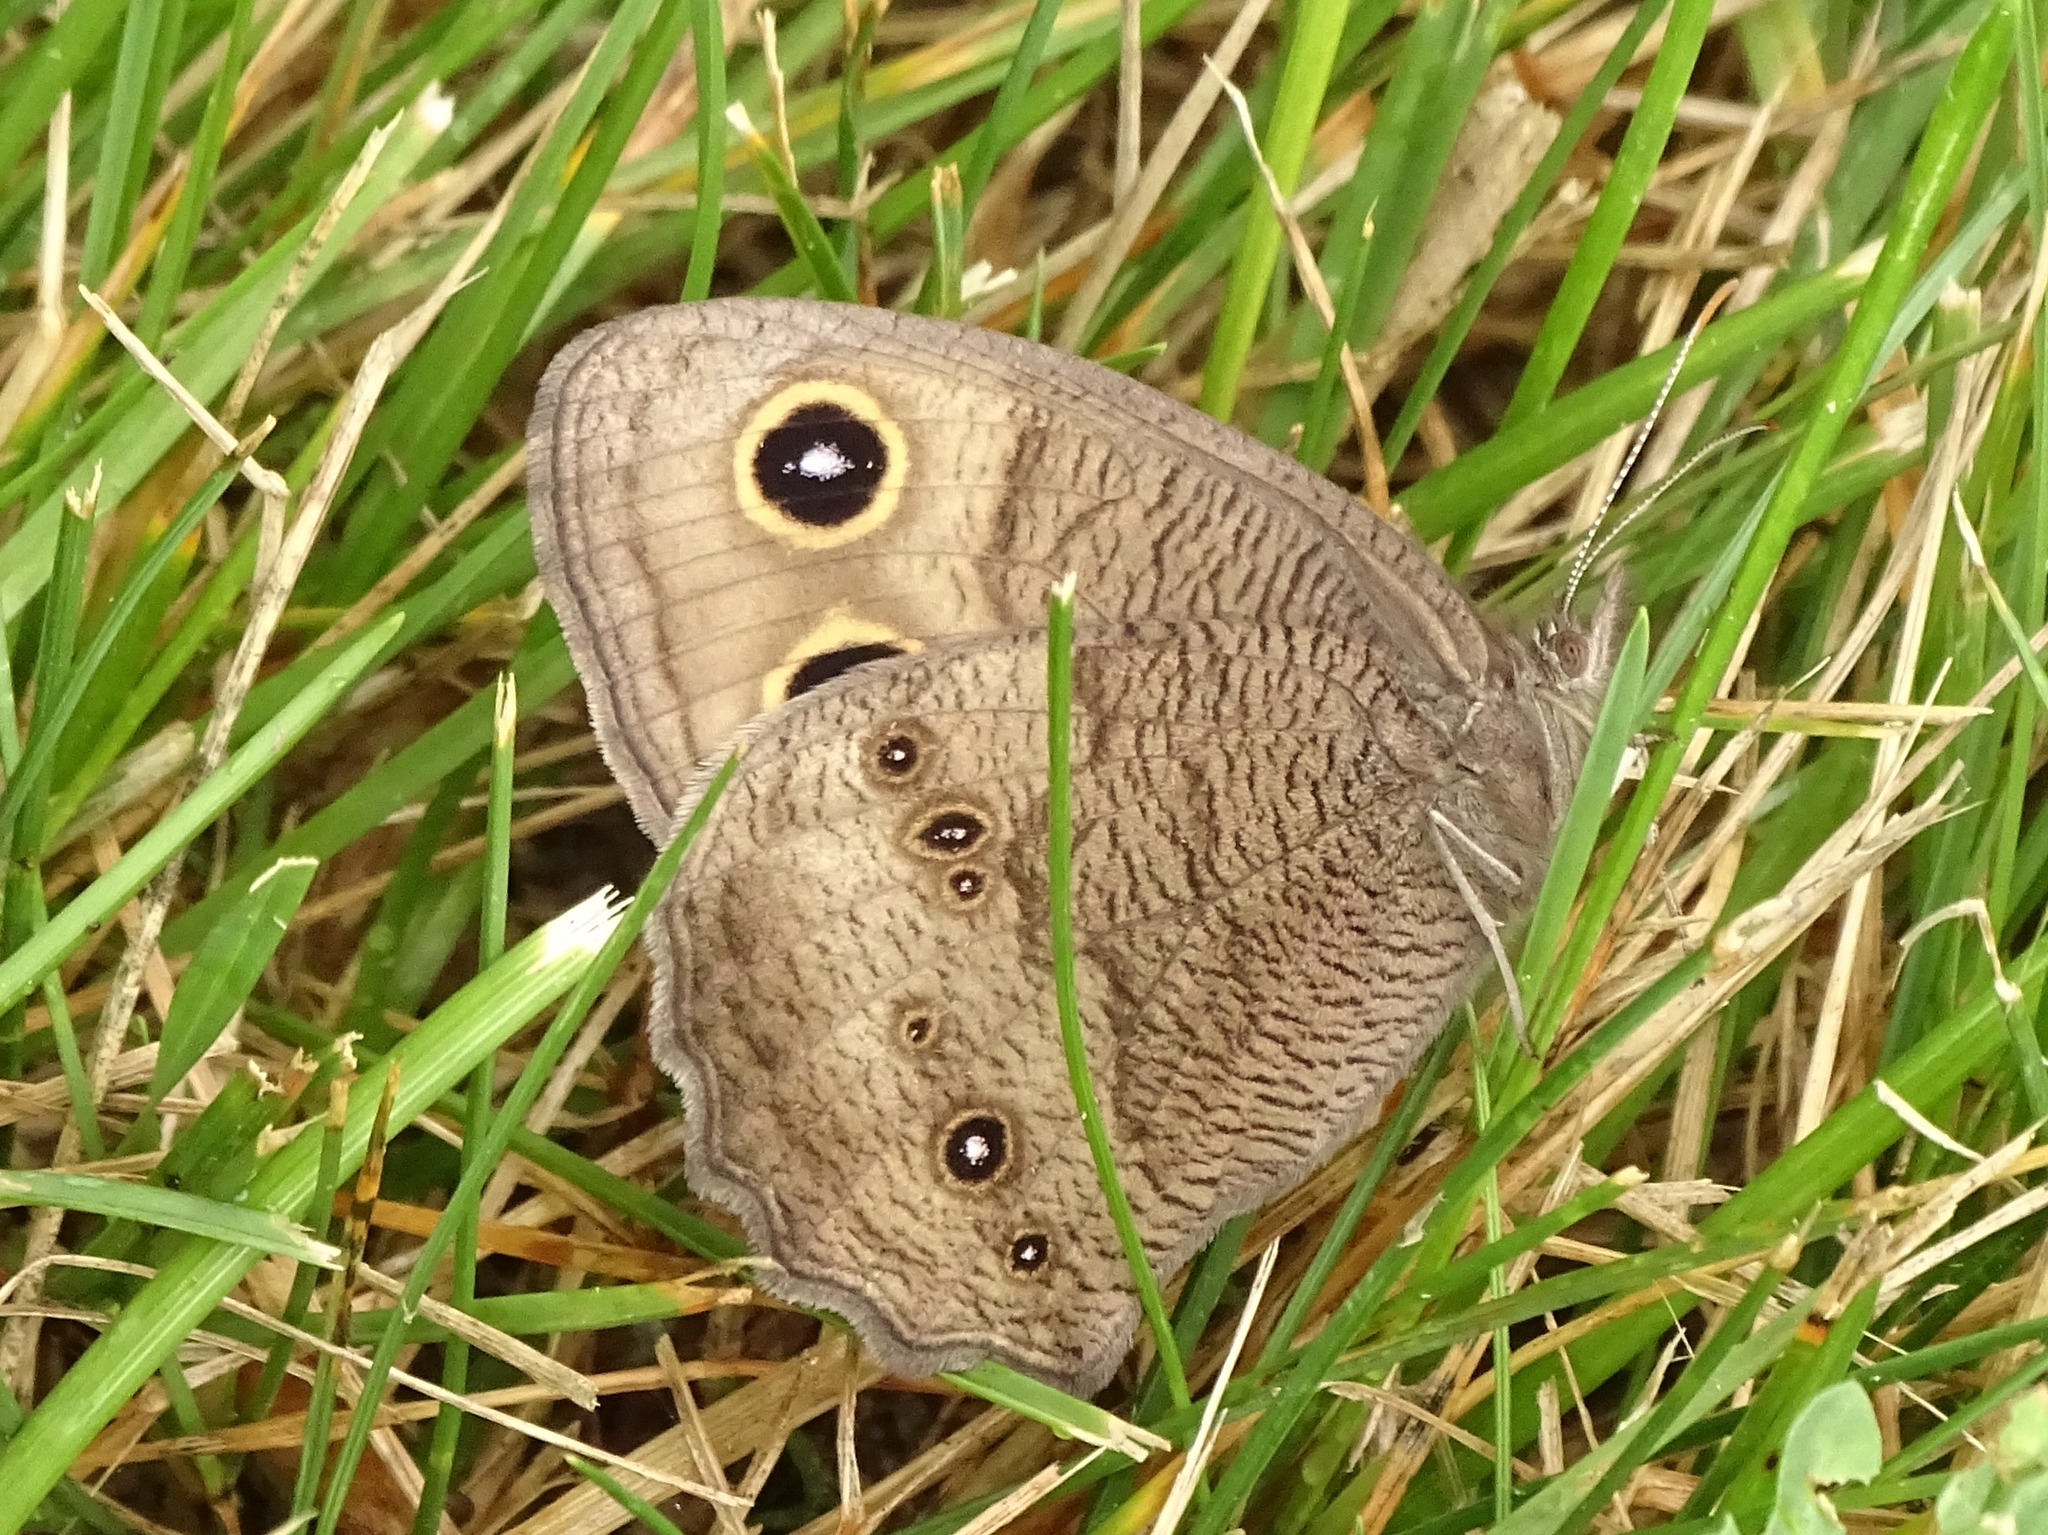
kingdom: Animalia
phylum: Arthropoda
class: Insecta
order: Lepidoptera
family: Nymphalidae
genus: Cercyonis
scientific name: Cercyonis pegala
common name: Common wood-nymph
